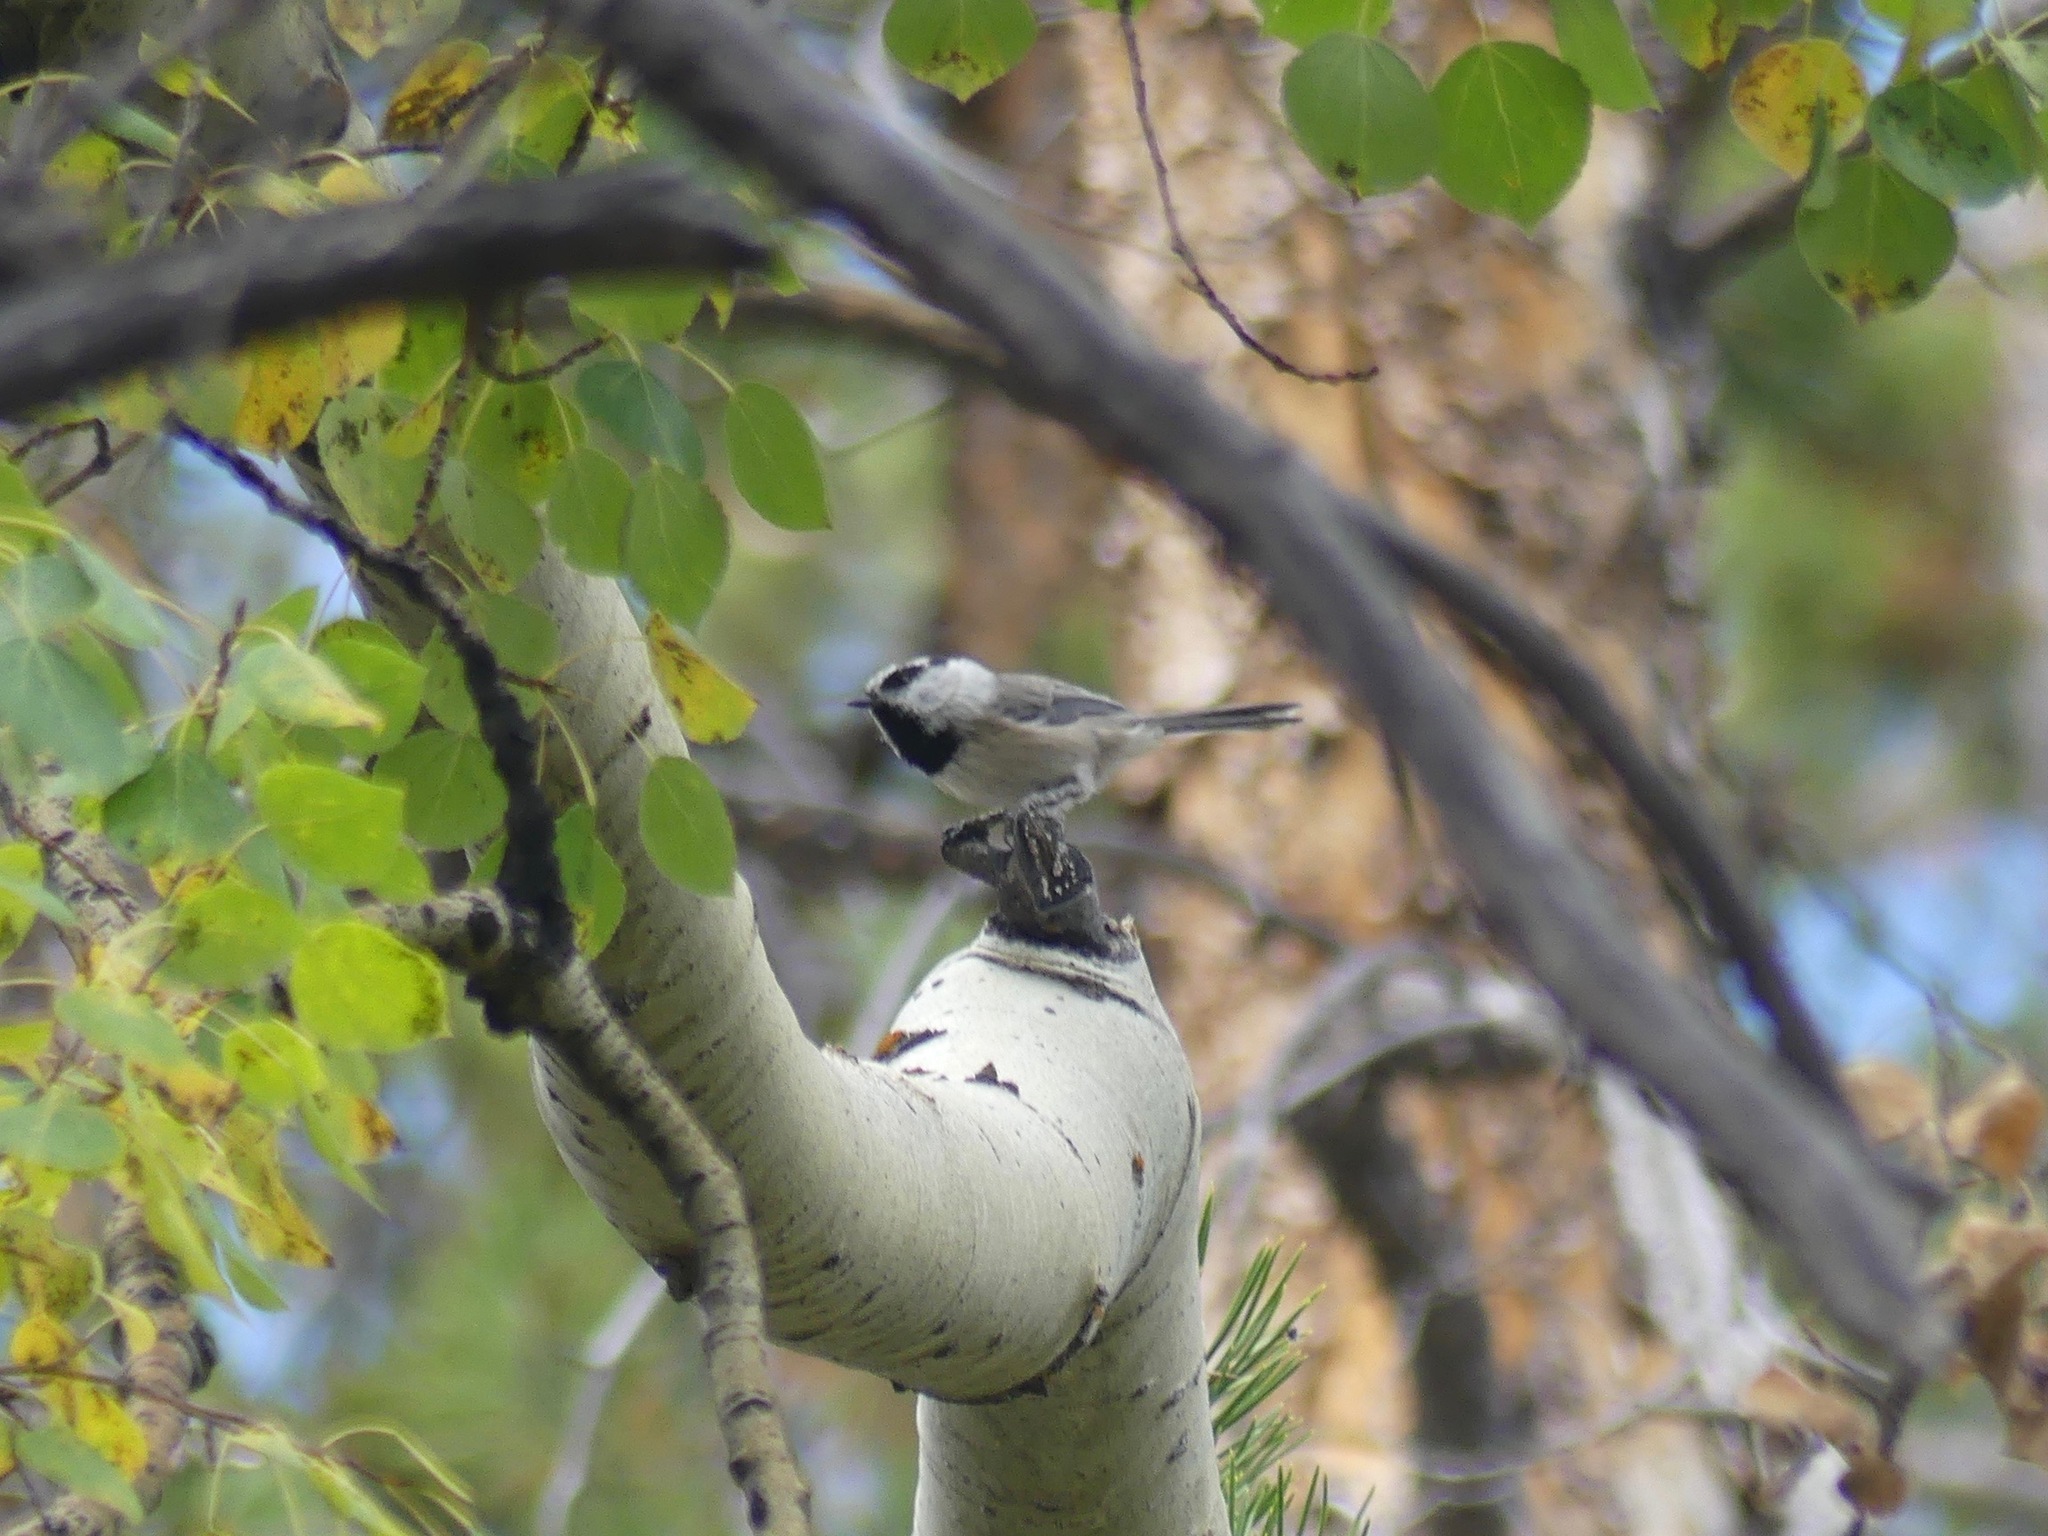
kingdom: Animalia
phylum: Chordata
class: Aves
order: Passeriformes
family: Paridae
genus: Poecile
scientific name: Poecile gambeli
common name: Mountain chickadee
